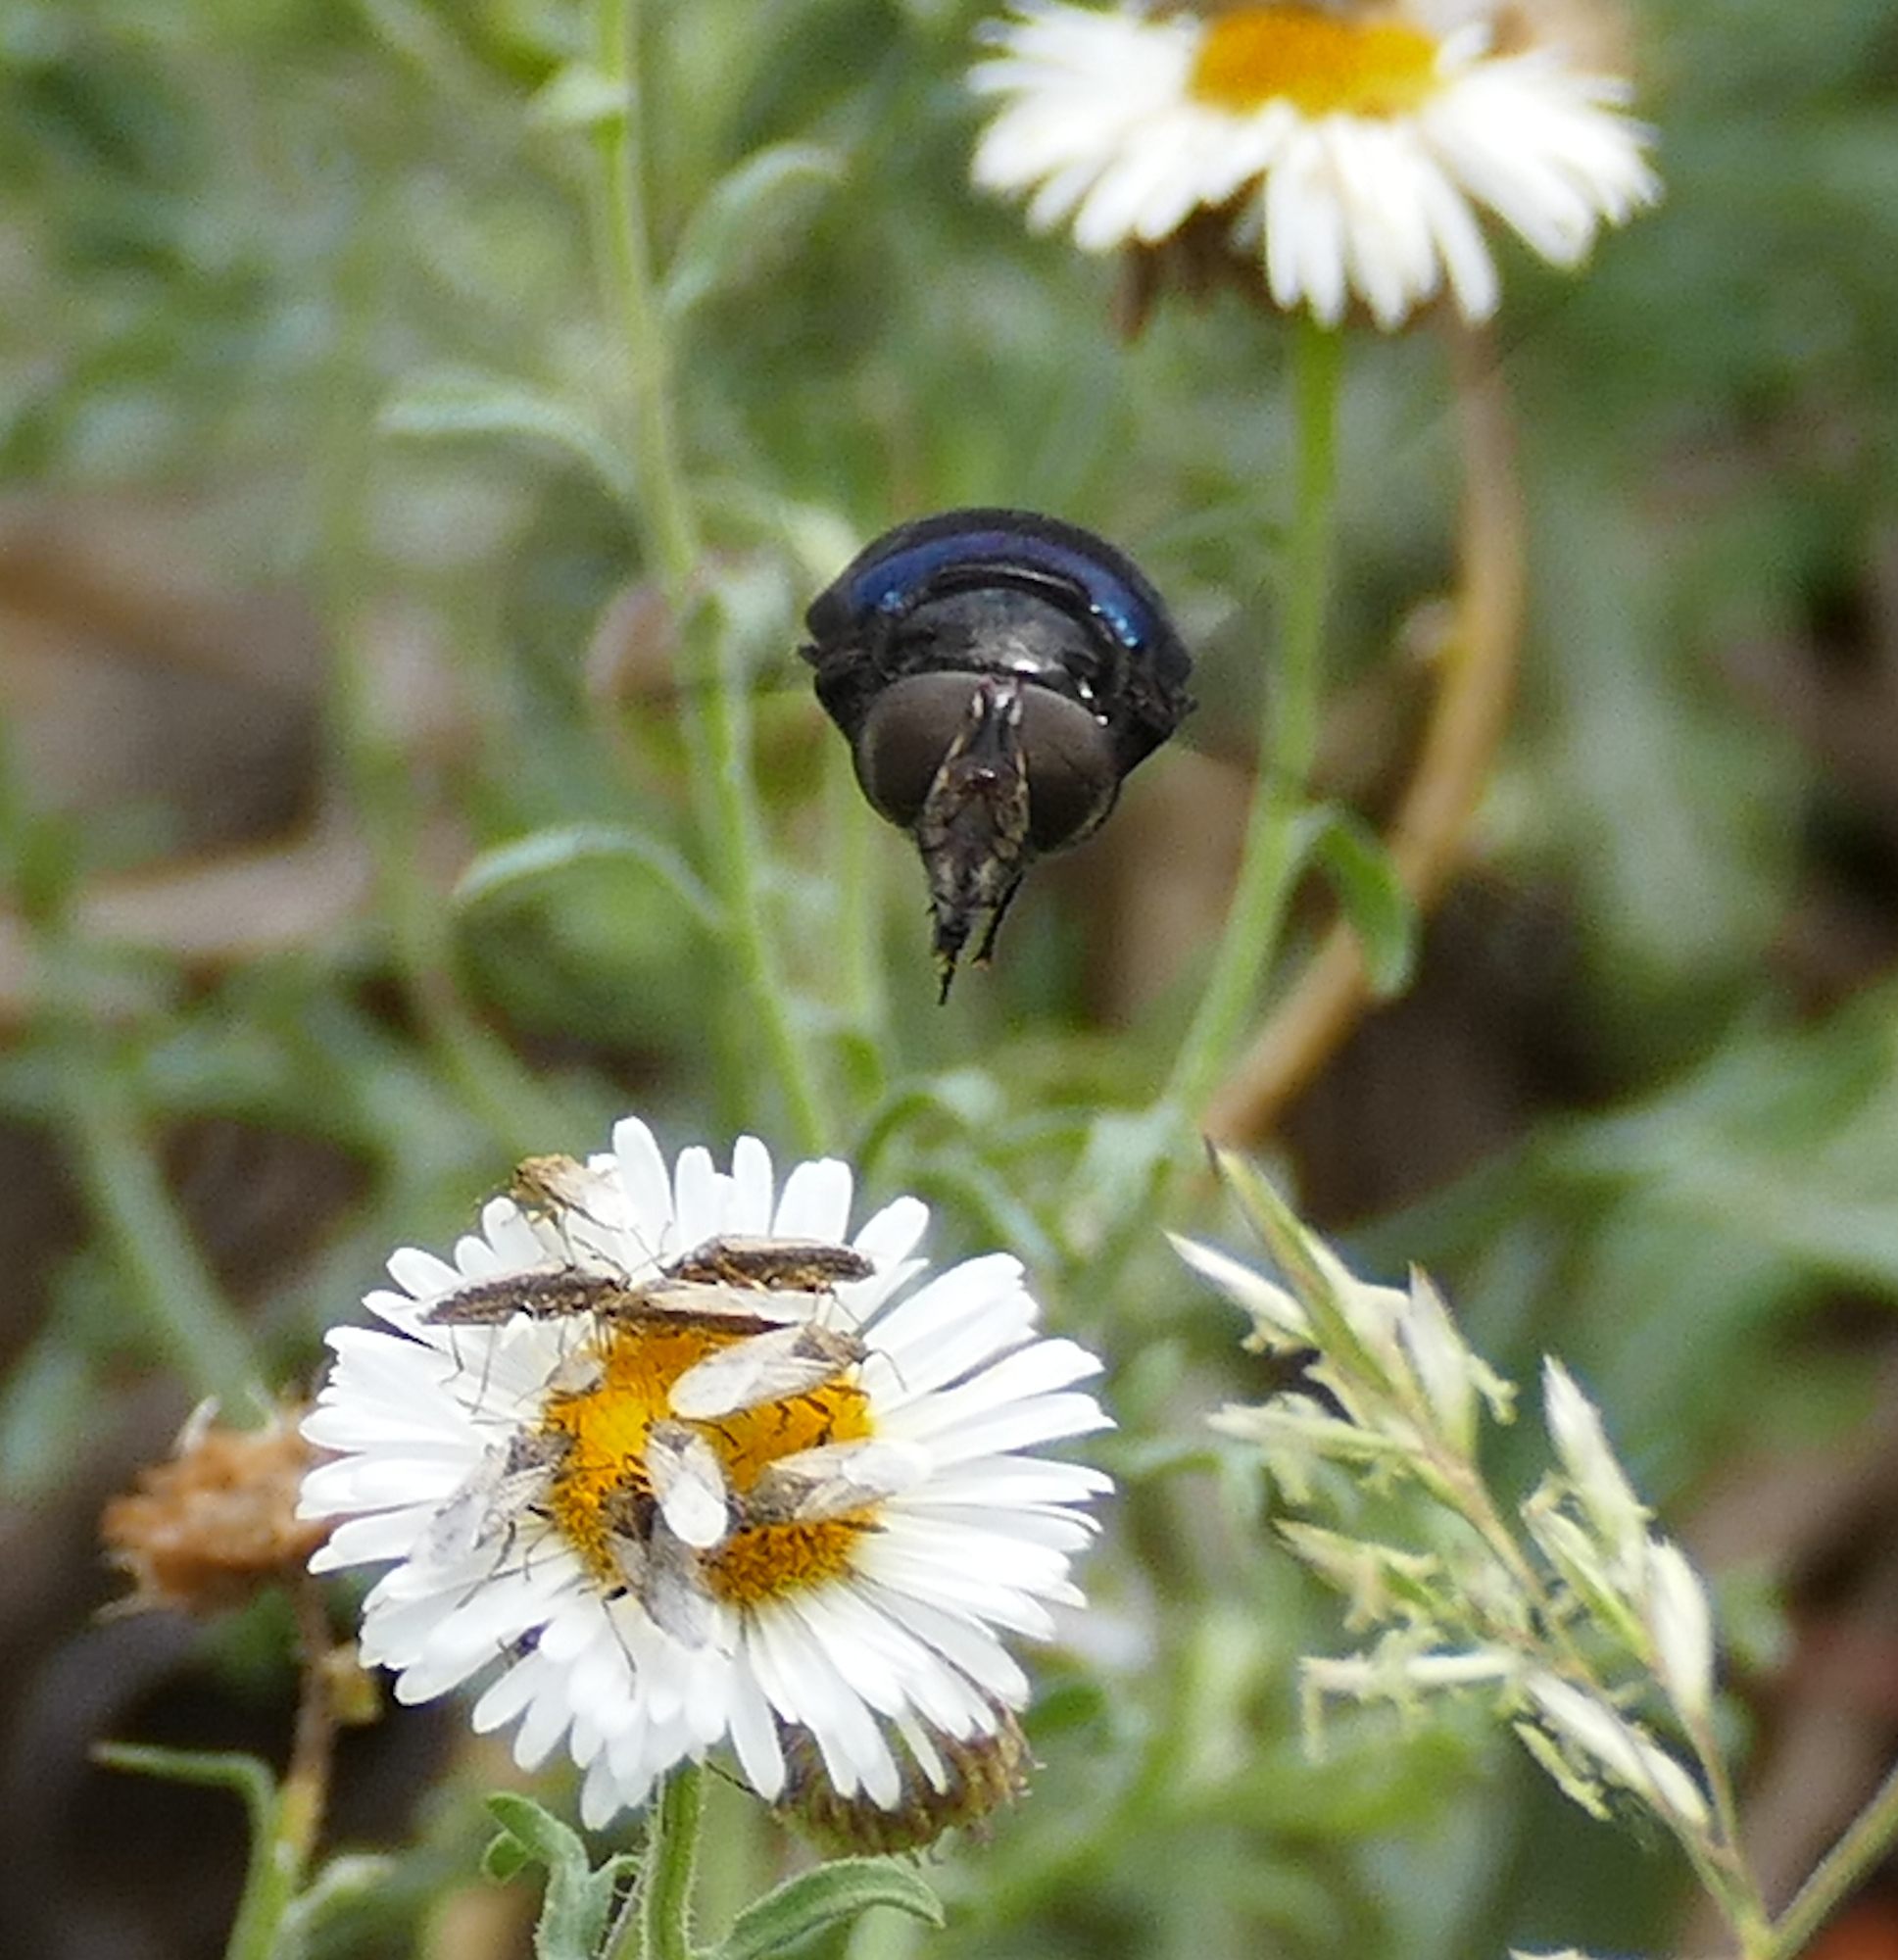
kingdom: Animalia
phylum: Arthropoda
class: Insecta
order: Diptera
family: Syrphidae
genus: Copestylum
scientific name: Copestylum violaceum
